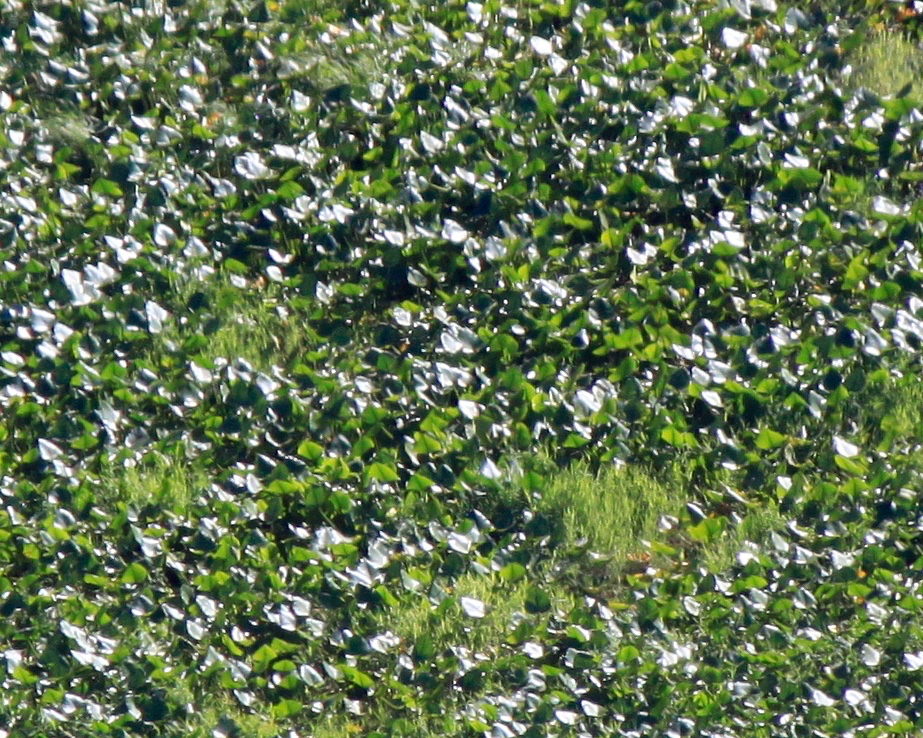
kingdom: Plantae
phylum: Tracheophyta
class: Magnoliopsida
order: Nymphaeales
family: Nymphaeaceae
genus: Nuphar
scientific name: Nuphar polysepala
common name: Rocky mountain cow-lily
